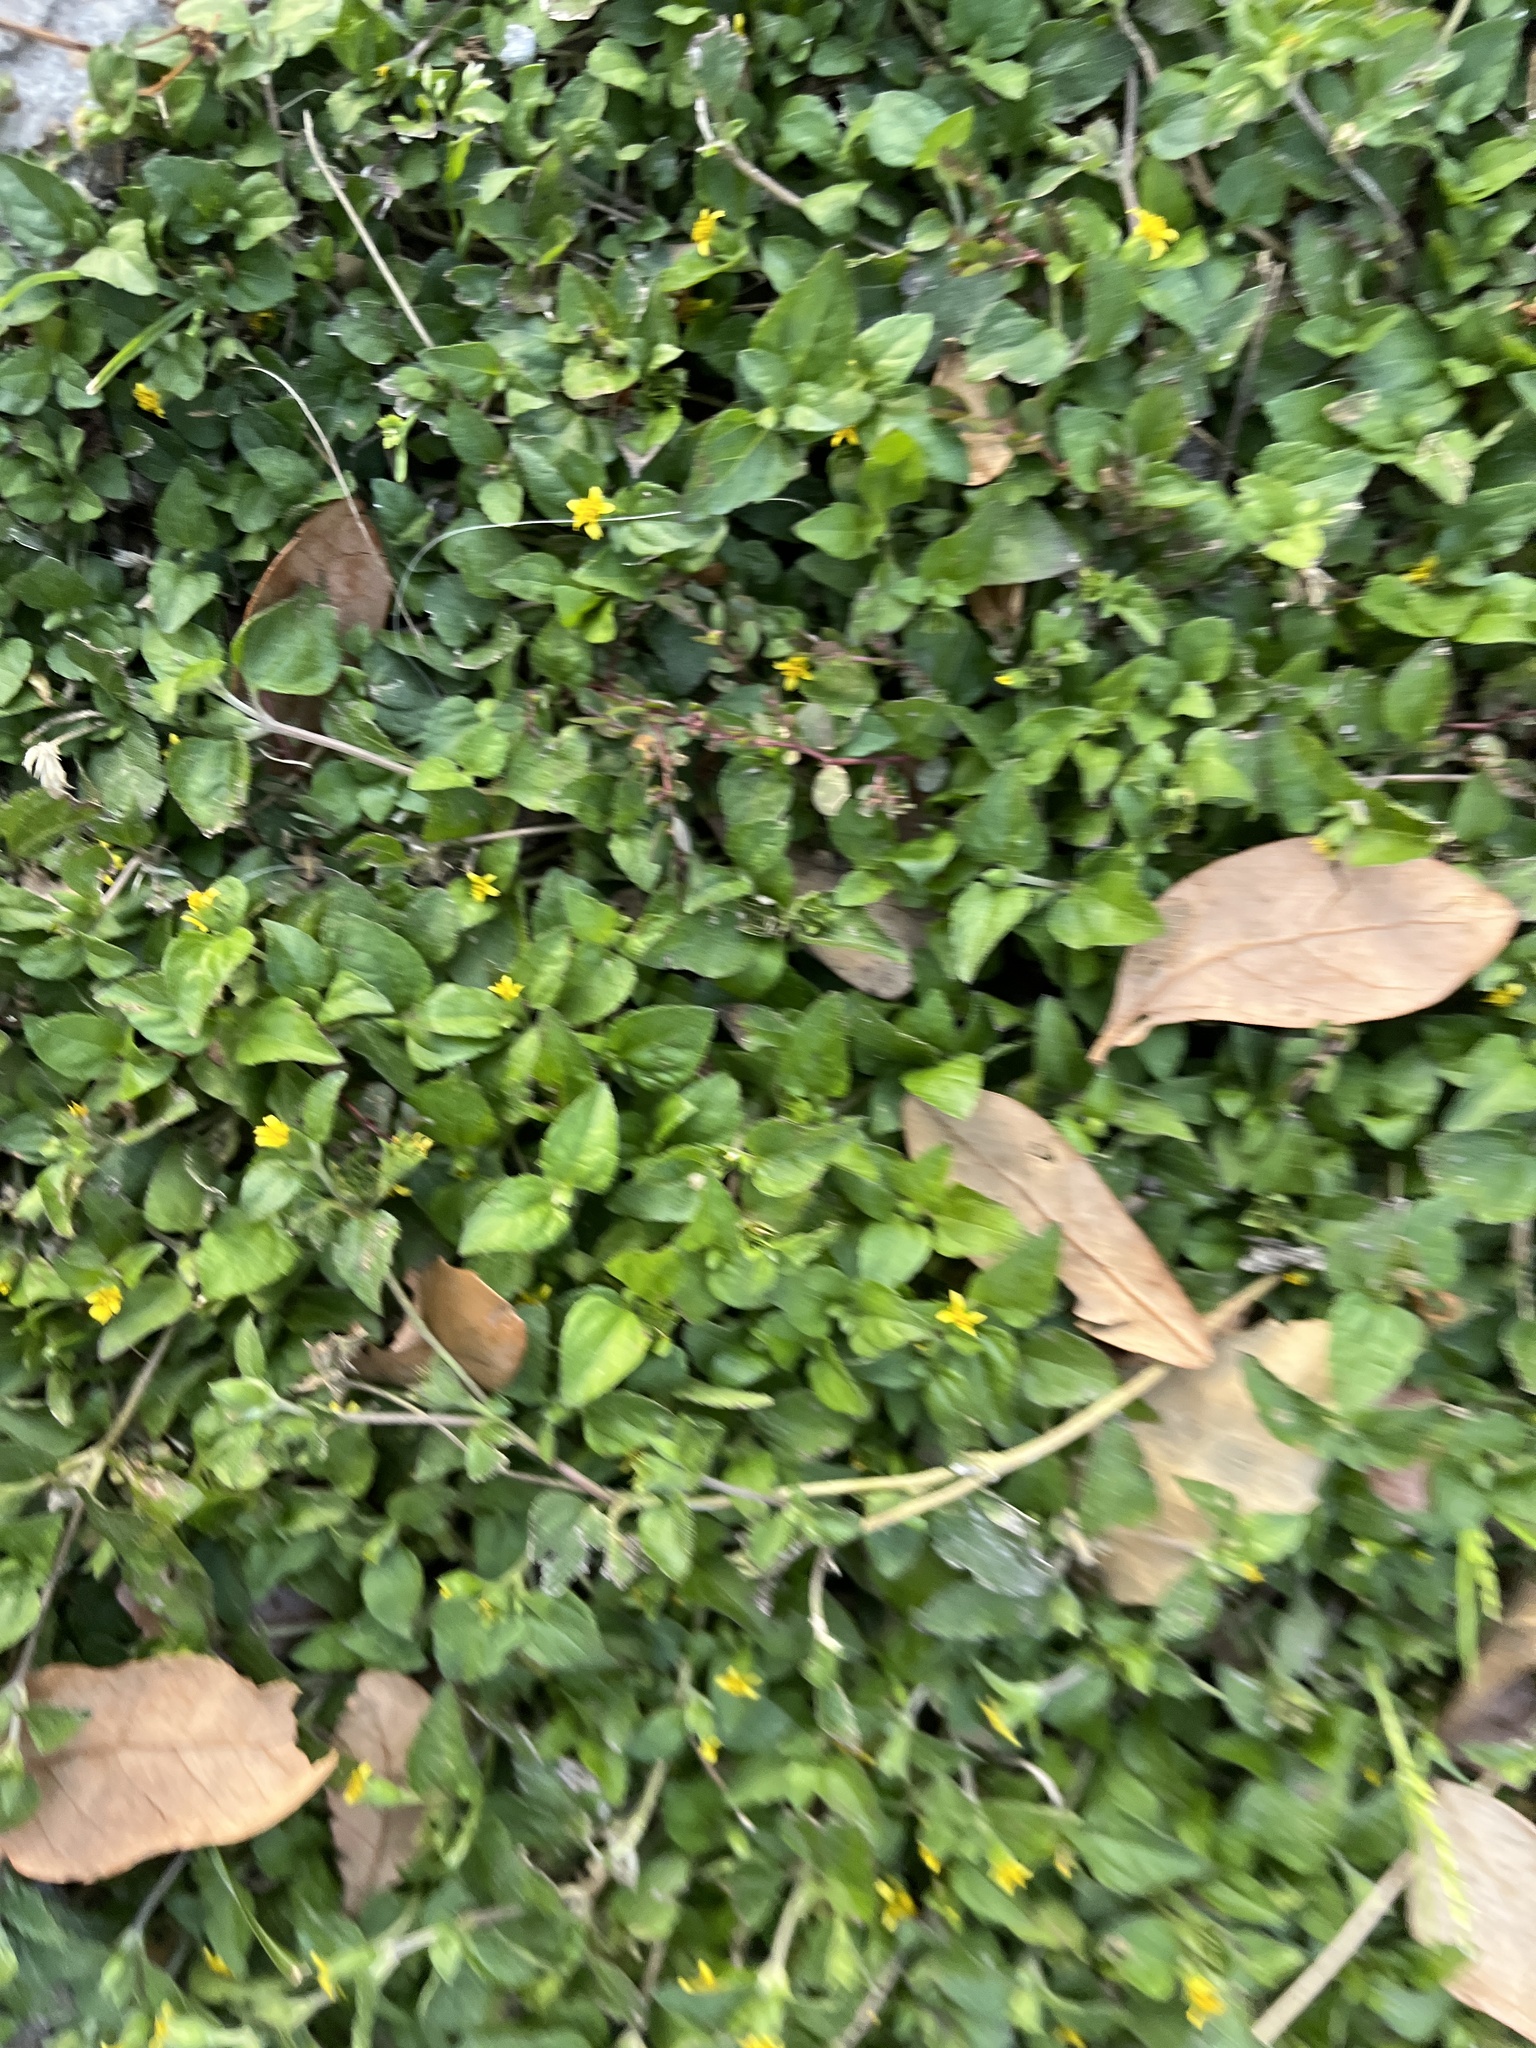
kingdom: Plantae
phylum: Tracheophyta
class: Magnoliopsida
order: Asterales
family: Asteraceae
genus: Calyptocarpus
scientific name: Calyptocarpus vialis
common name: Straggler daisy
